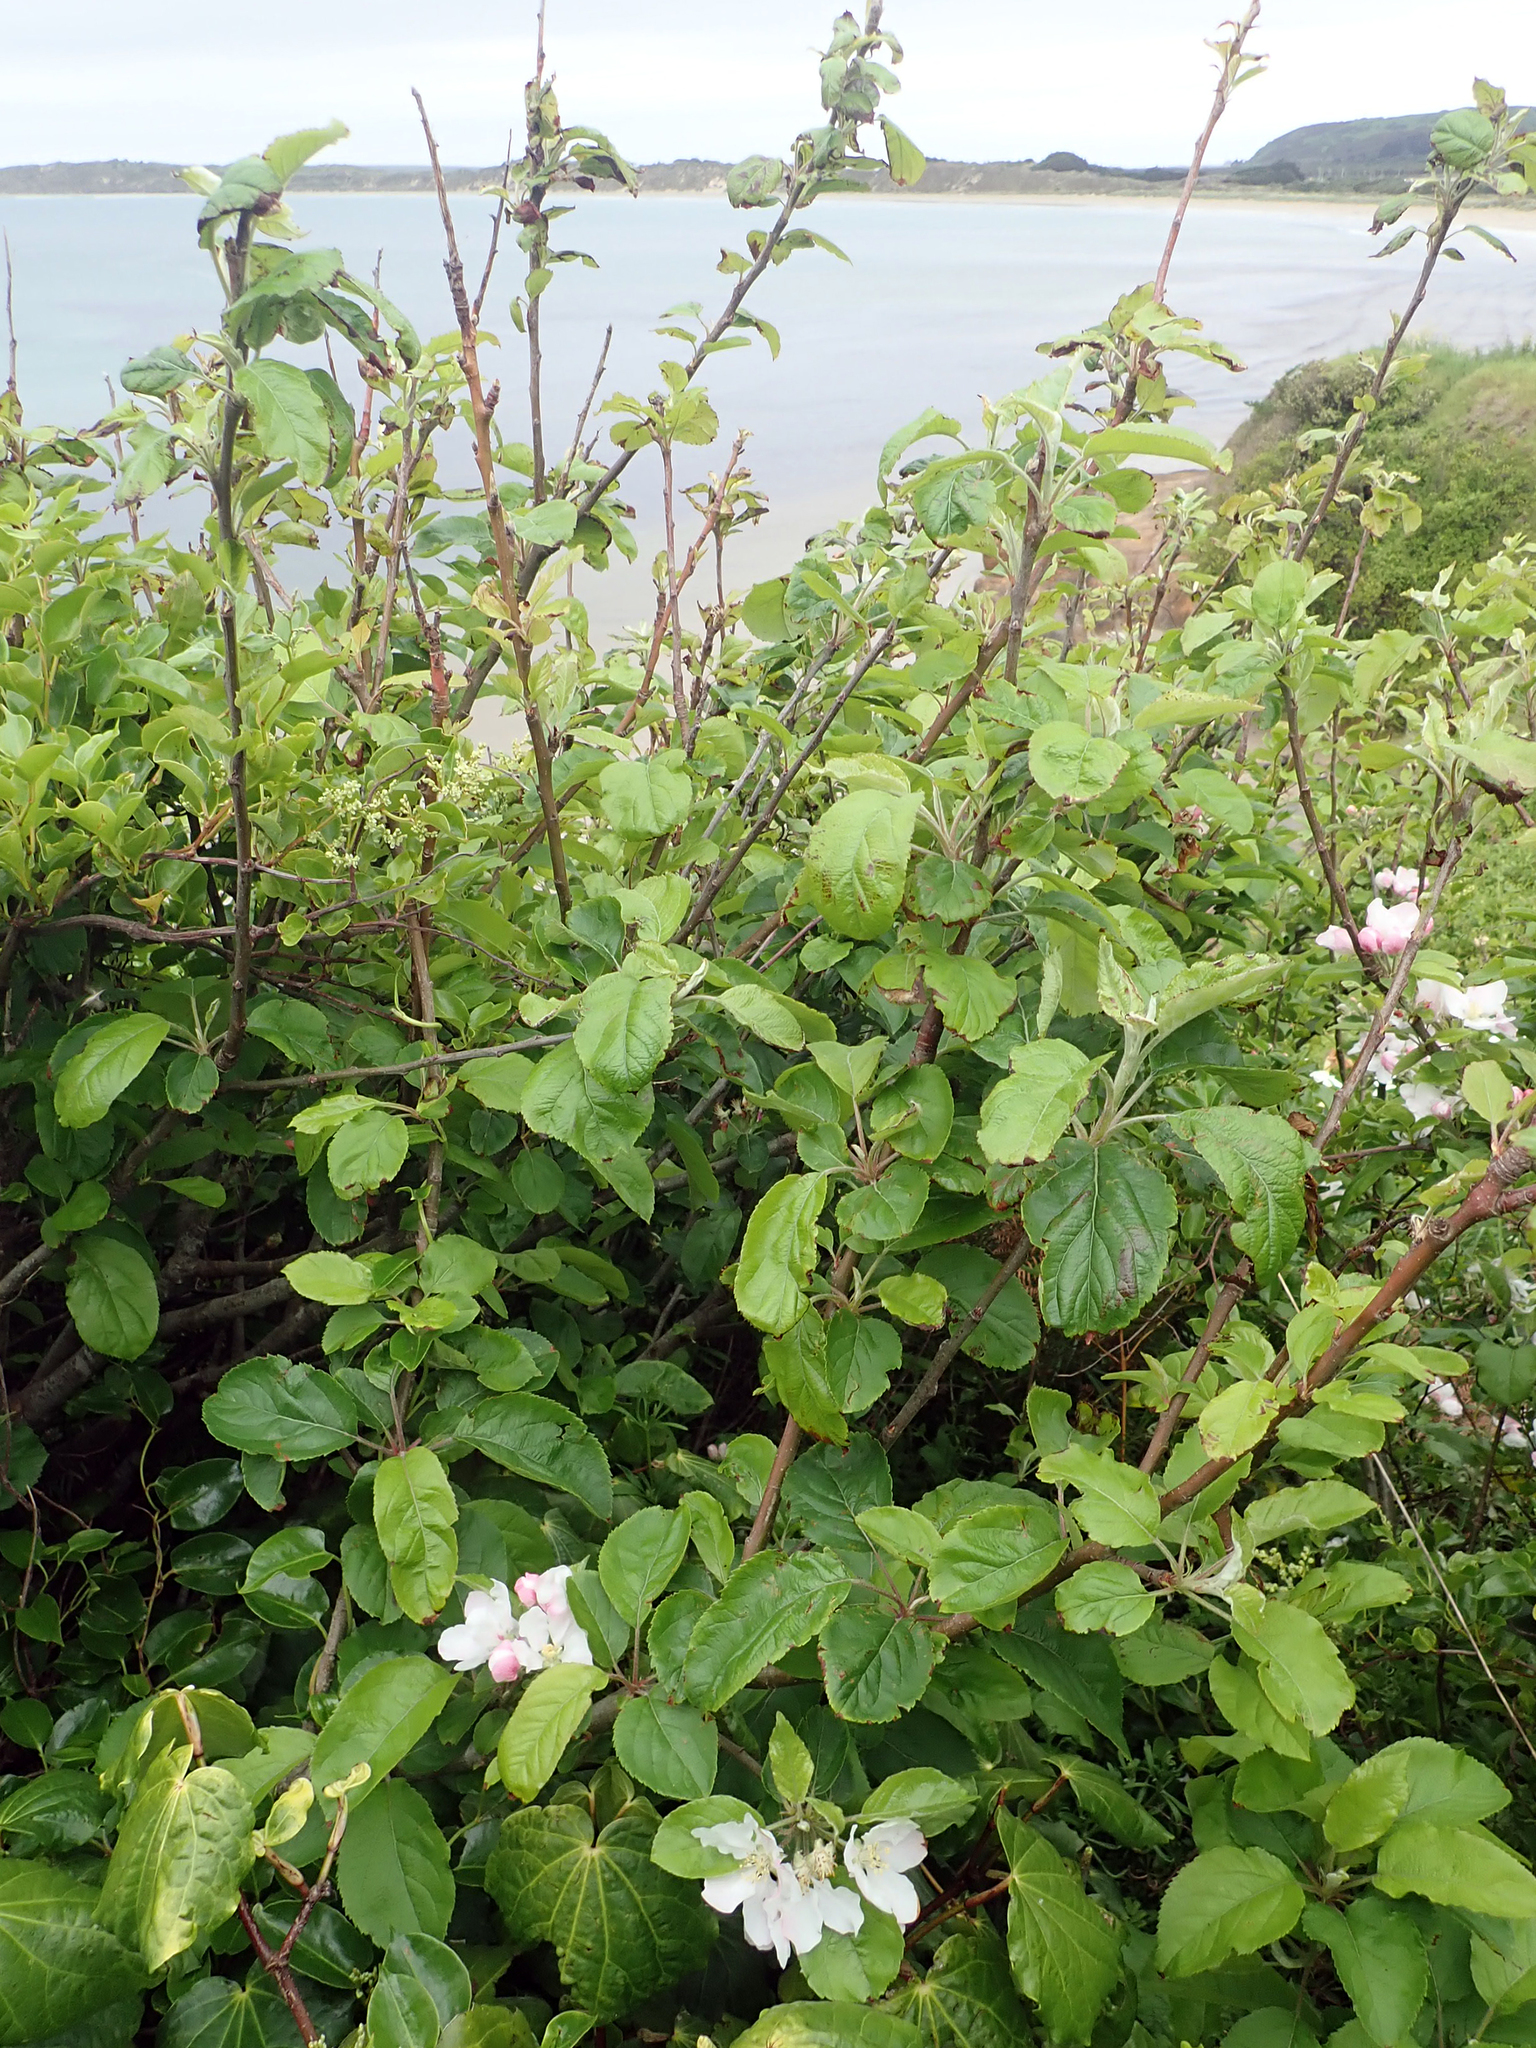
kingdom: Plantae
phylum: Tracheophyta
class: Magnoliopsida
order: Rosales
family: Rosaceae
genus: Malus
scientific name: Malus domestica
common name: Apple
